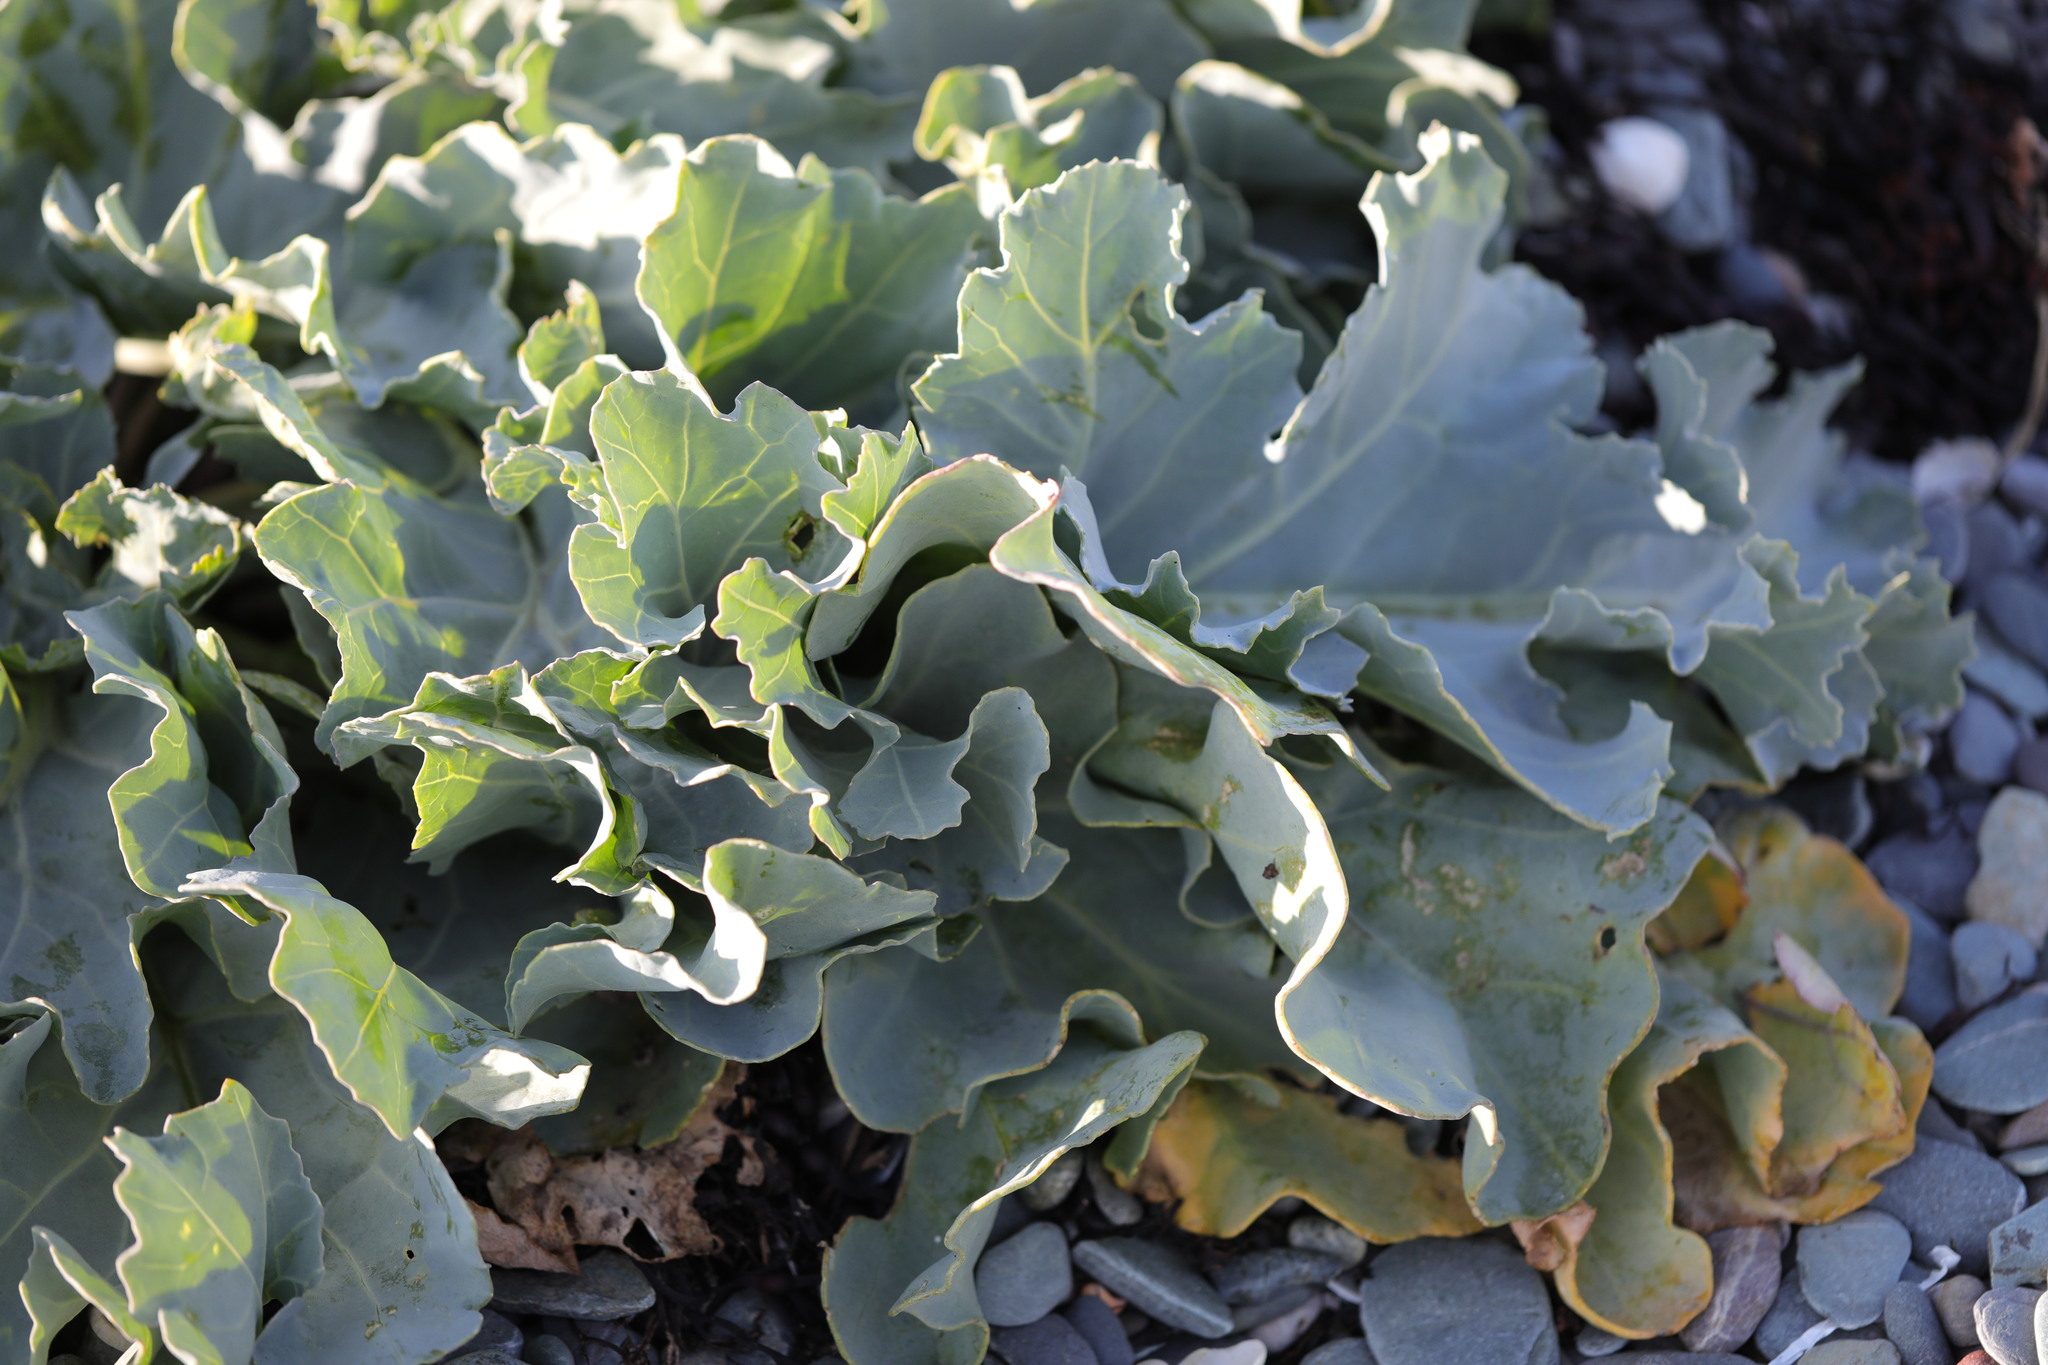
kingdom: Plantae
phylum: Tracheophyta
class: Magnoliopsida
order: Brassicales
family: Brassicaceae
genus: Crambe
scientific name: Crambe maritima
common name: Sea-kale
